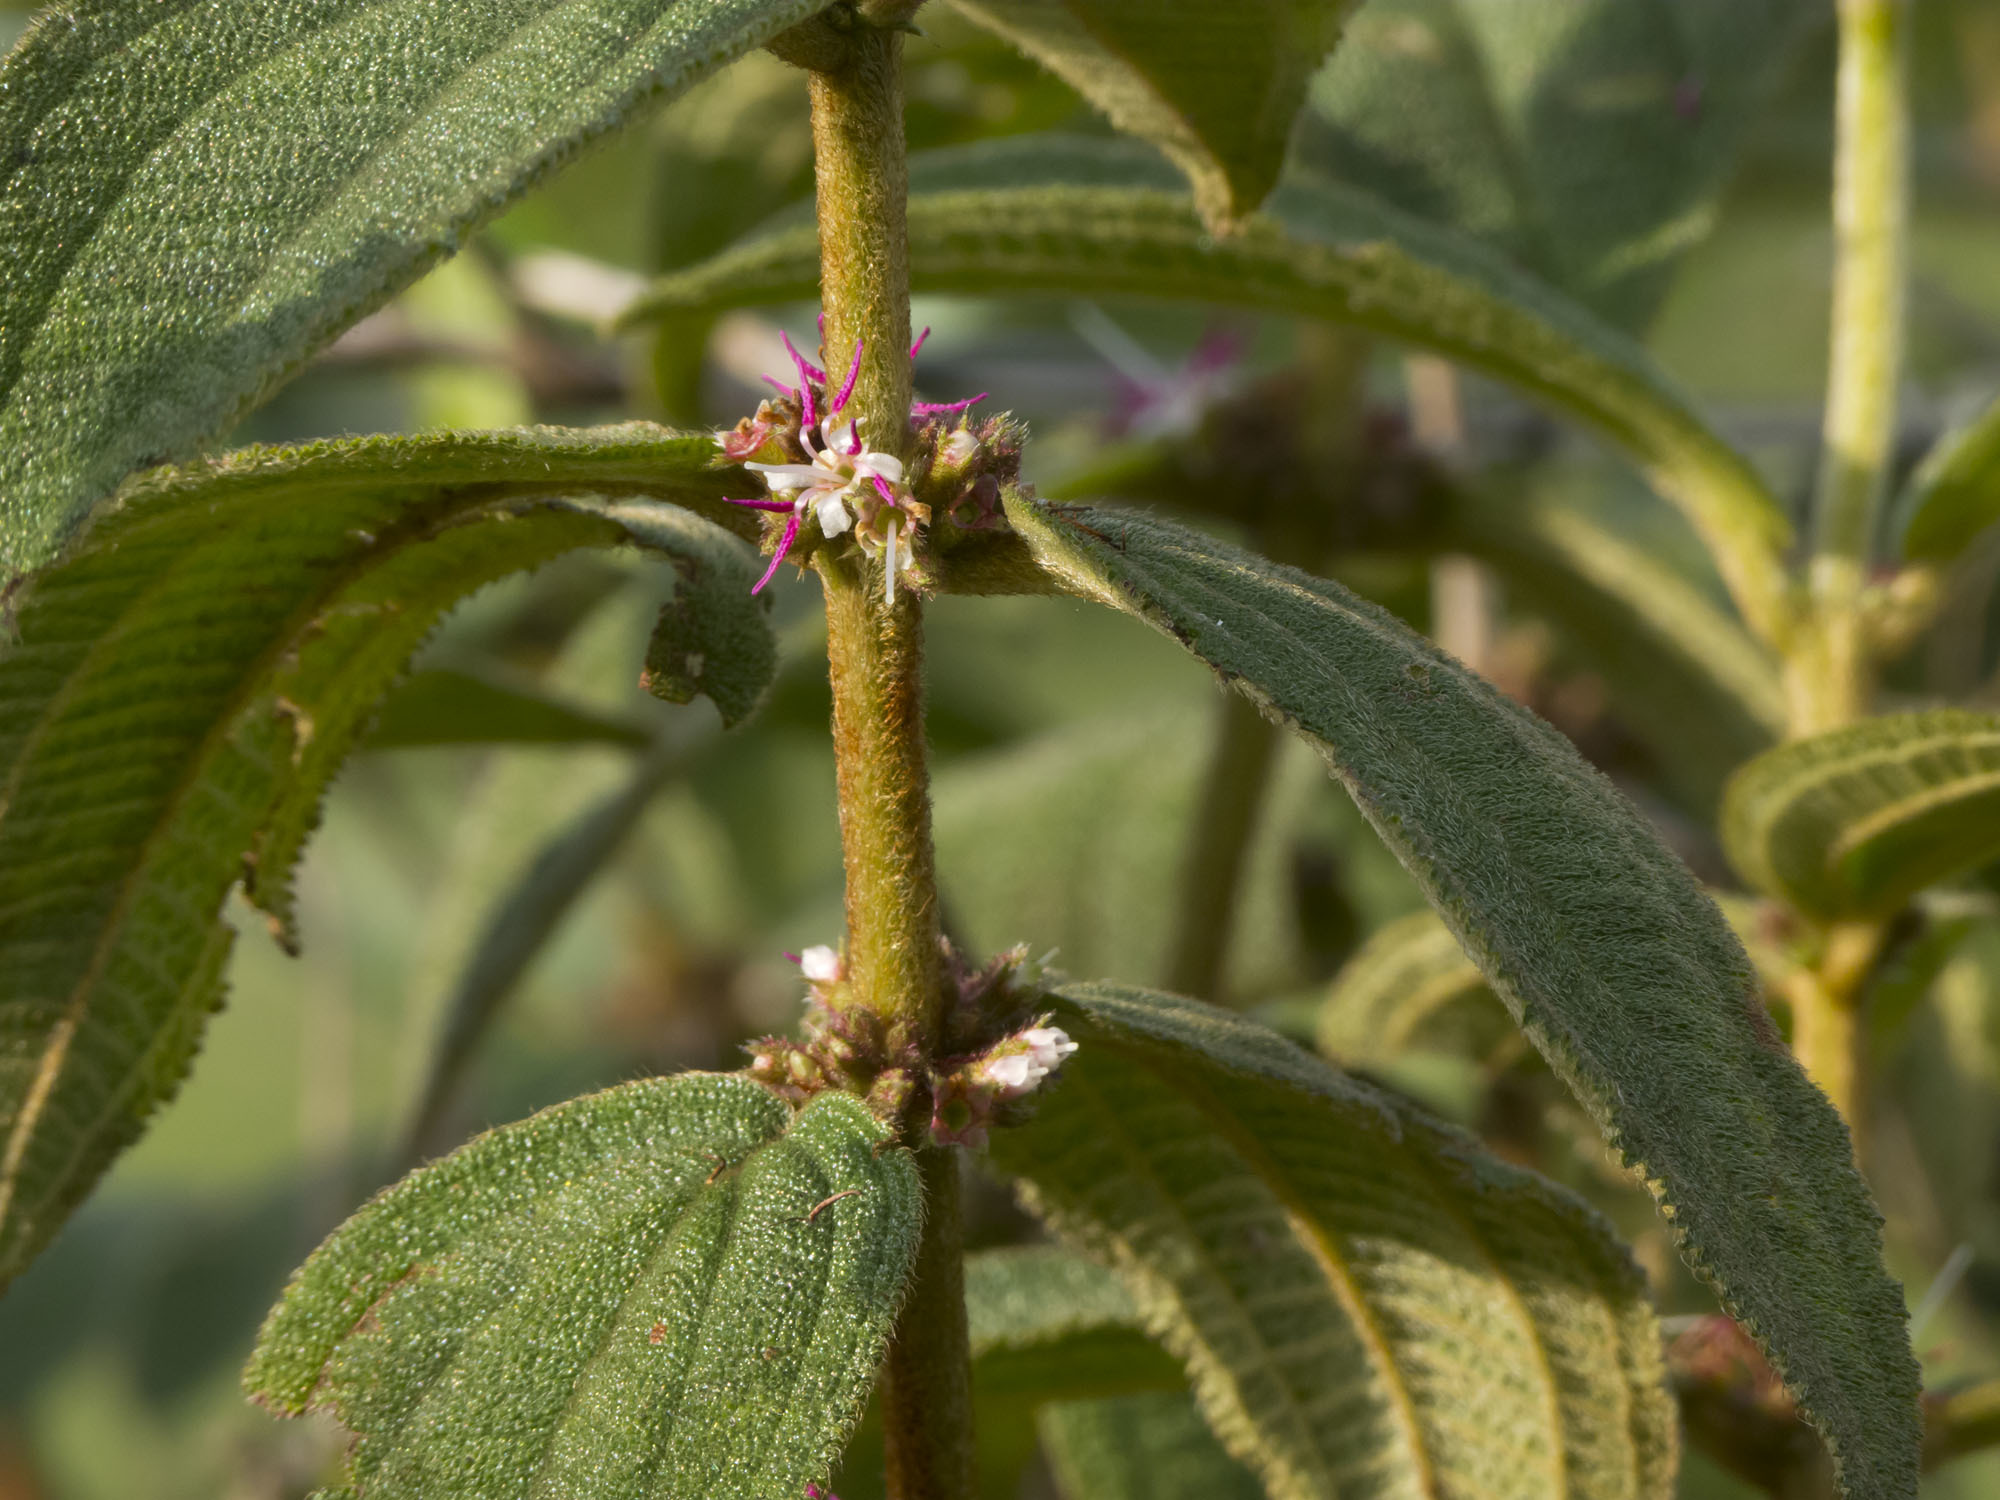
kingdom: Plantae
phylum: Tracheophyta
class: Magnoliopsida
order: Myrtales
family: Melastomataceae
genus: Miconia
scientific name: Miconia rubra
